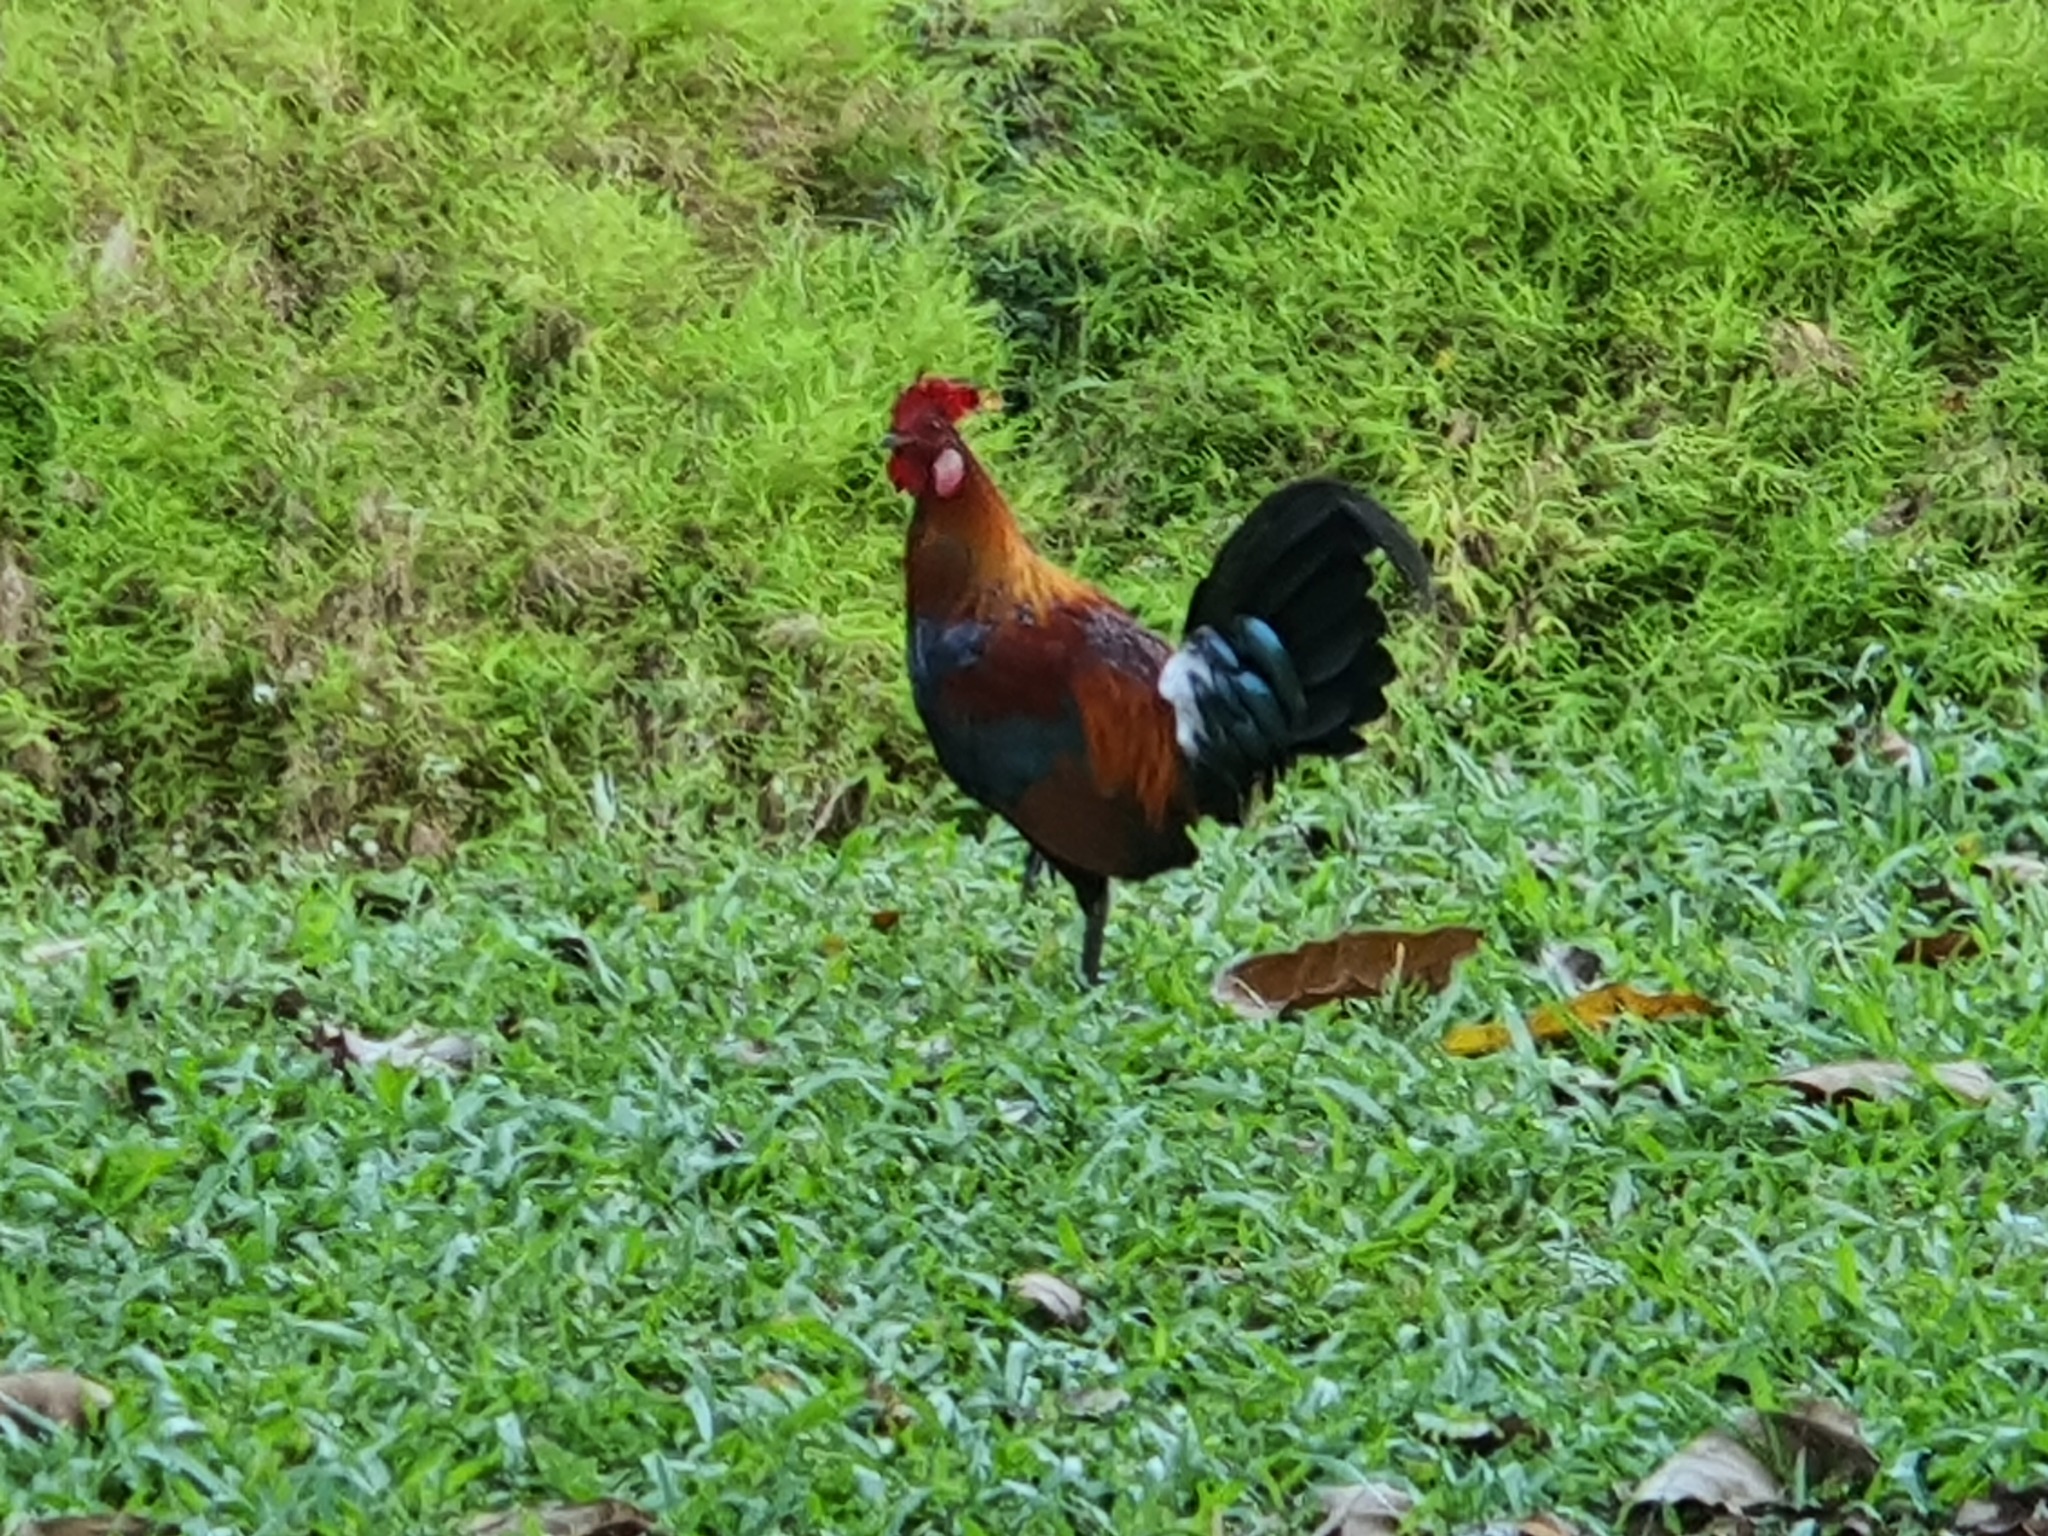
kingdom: Animalia
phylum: Chordata
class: Aves
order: Galliformes
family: Phasianidae
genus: Gallus
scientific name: Gallus gallus
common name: Red junglefowl
